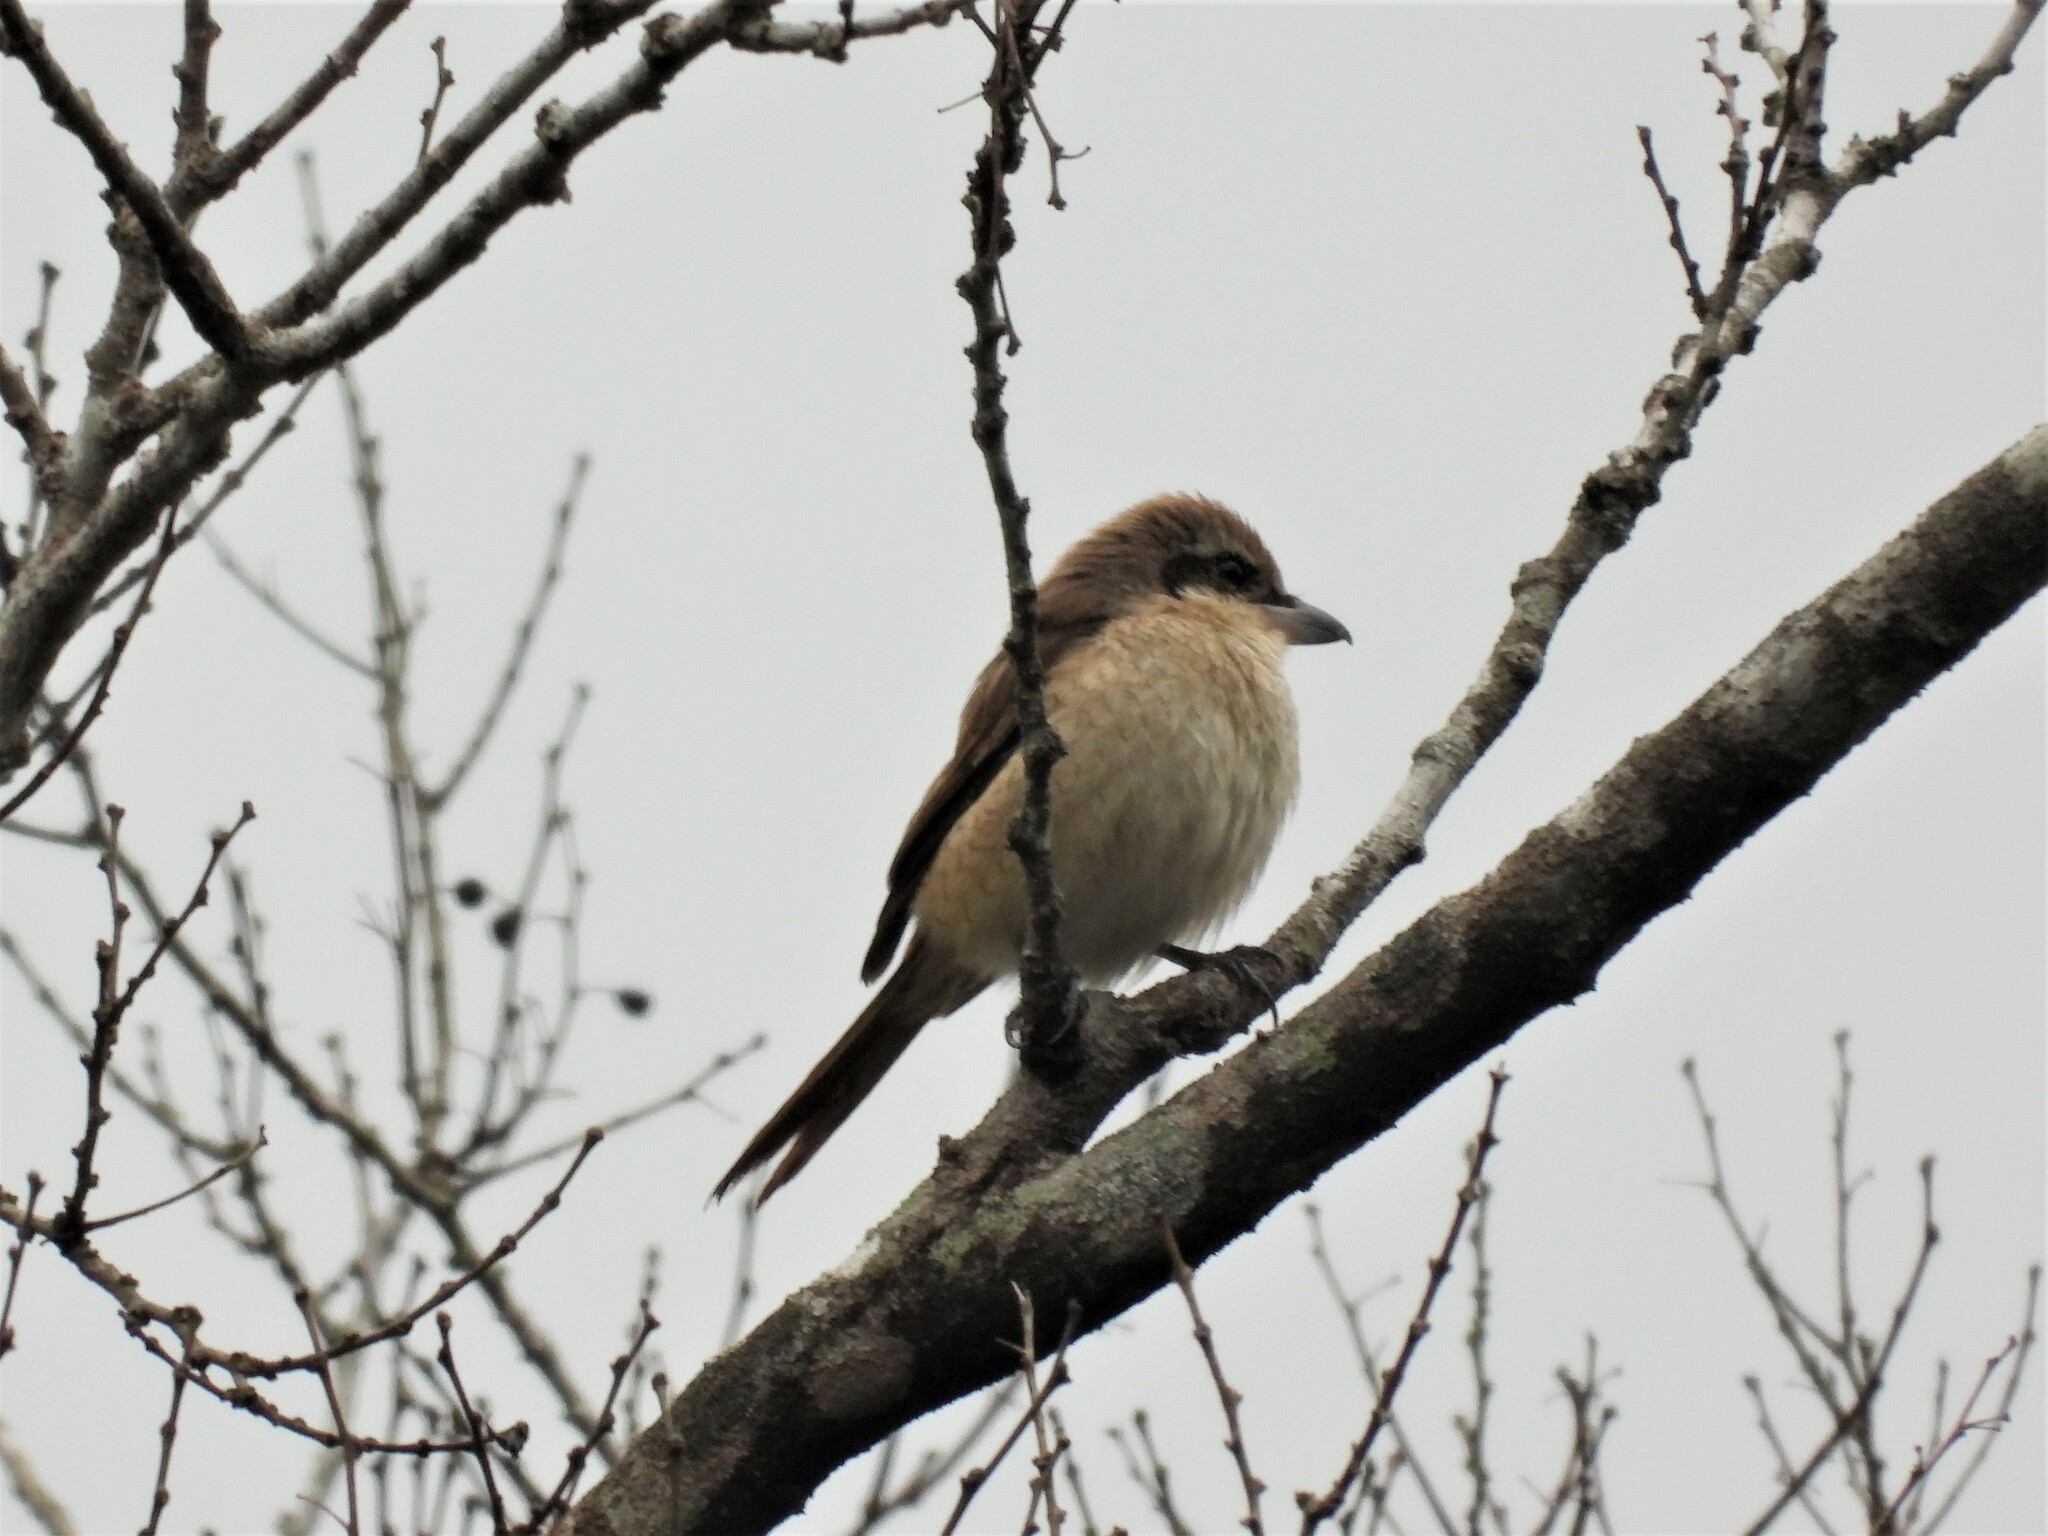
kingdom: Animalia
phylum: Chordata
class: Aves
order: Passeriformes
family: Laniidae
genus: Lanius
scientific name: Lanius cristatus
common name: Brown shrike
